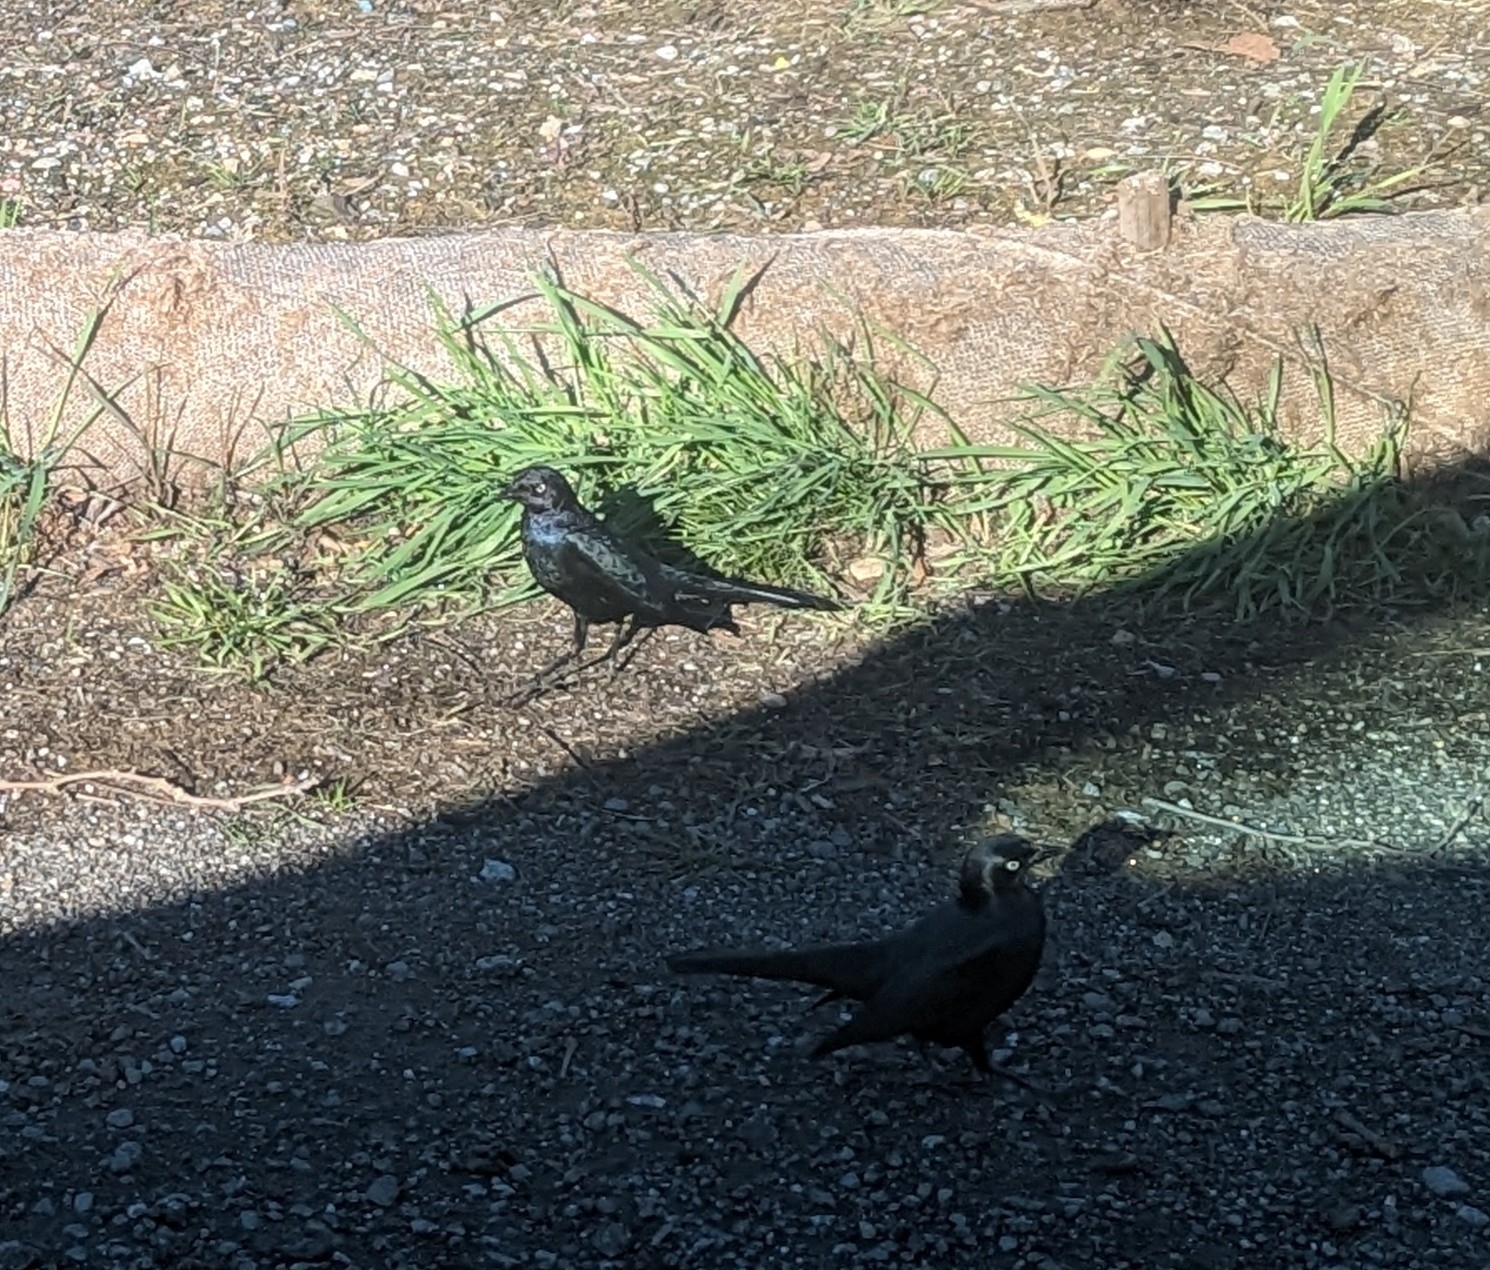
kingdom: Animalia
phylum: Chordata
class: Aves
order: Passeriformes
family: Icteridae
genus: Euphagus
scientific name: Euphagus cyanocephalus
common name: Brewer's blackbird
